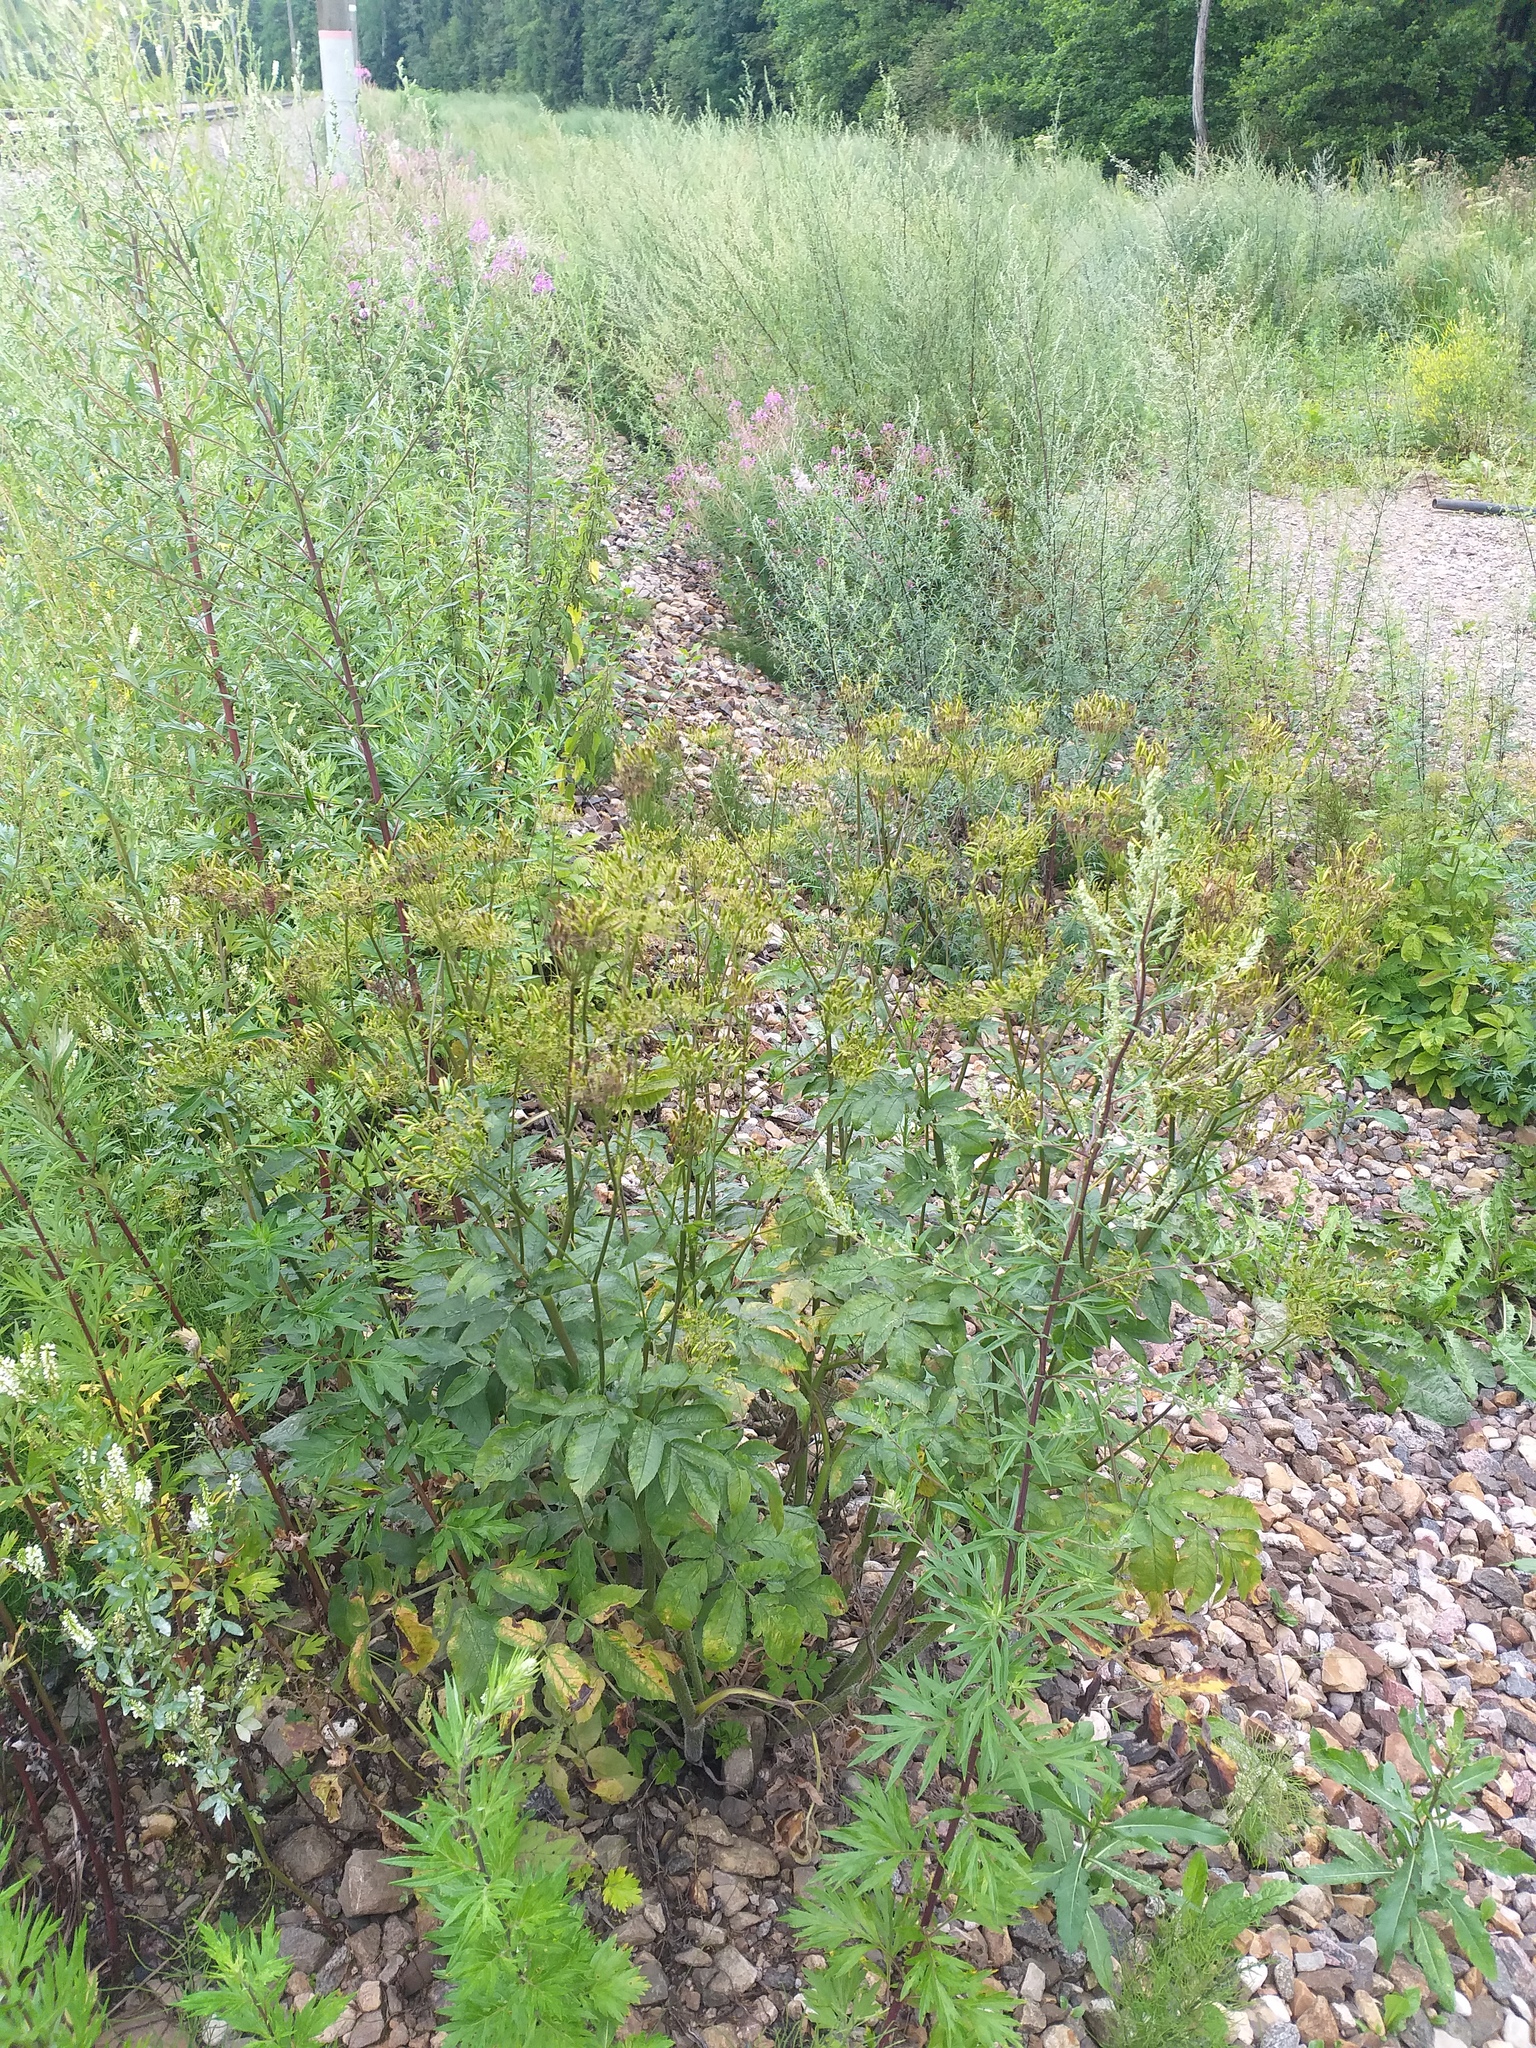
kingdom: Plantae
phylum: Tracheophyta
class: Magnoliopsida
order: Apiales
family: Apiaceae
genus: Chaerophyllum
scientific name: Chaerophyllum aromaticum
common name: Broadleaf chervil
